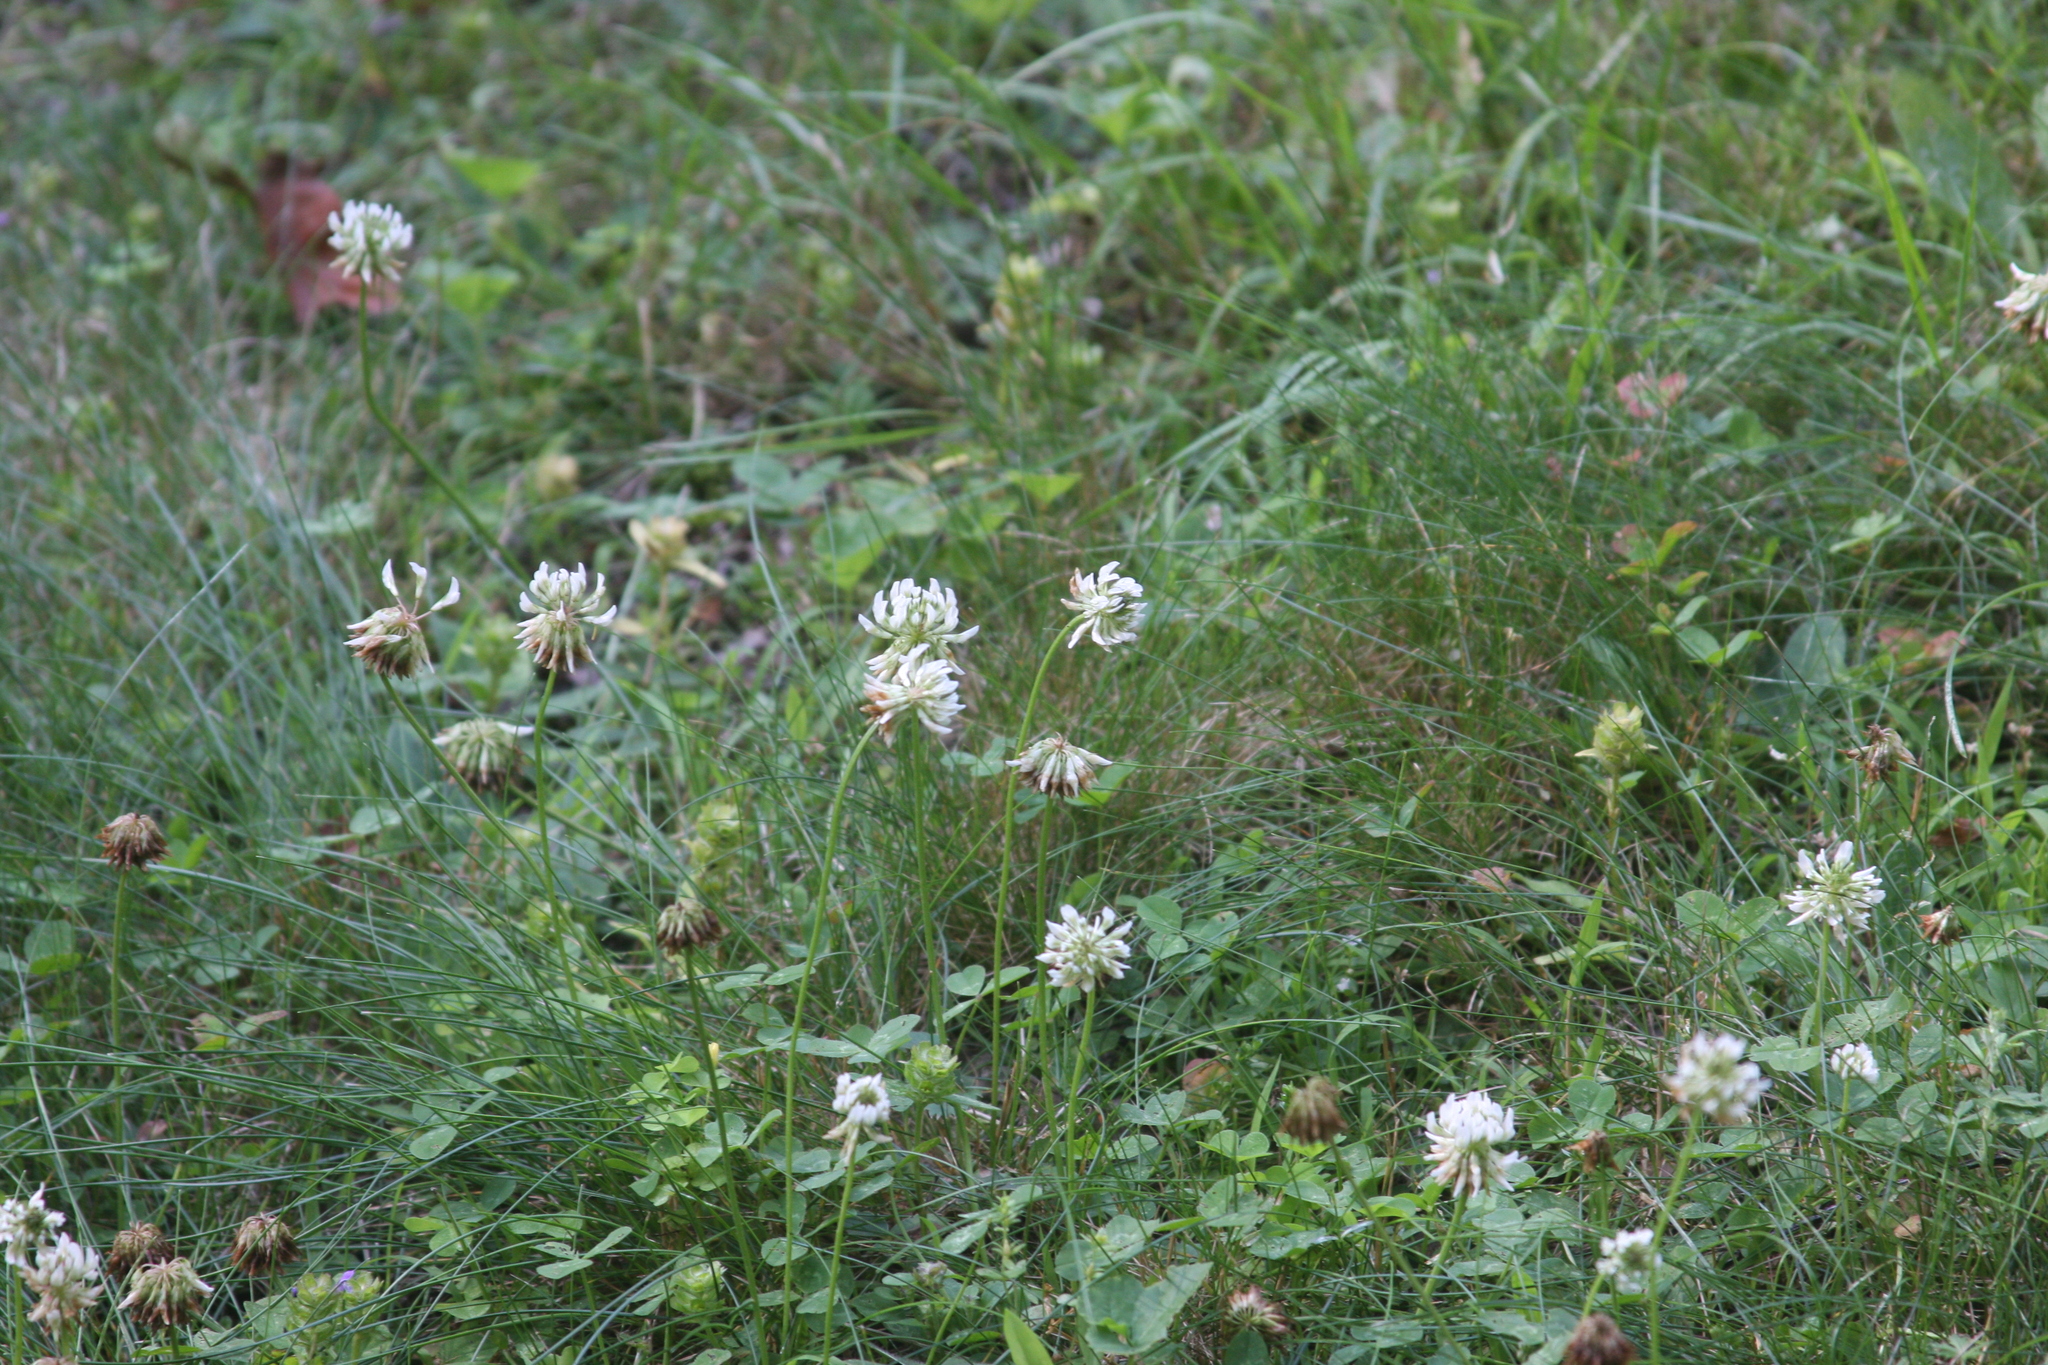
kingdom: Plantae
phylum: Tracheophyta
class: Magnoliopsida
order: Fabales
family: Fabaceae
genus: Trifolium
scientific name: Trifolium repens
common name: White clover
